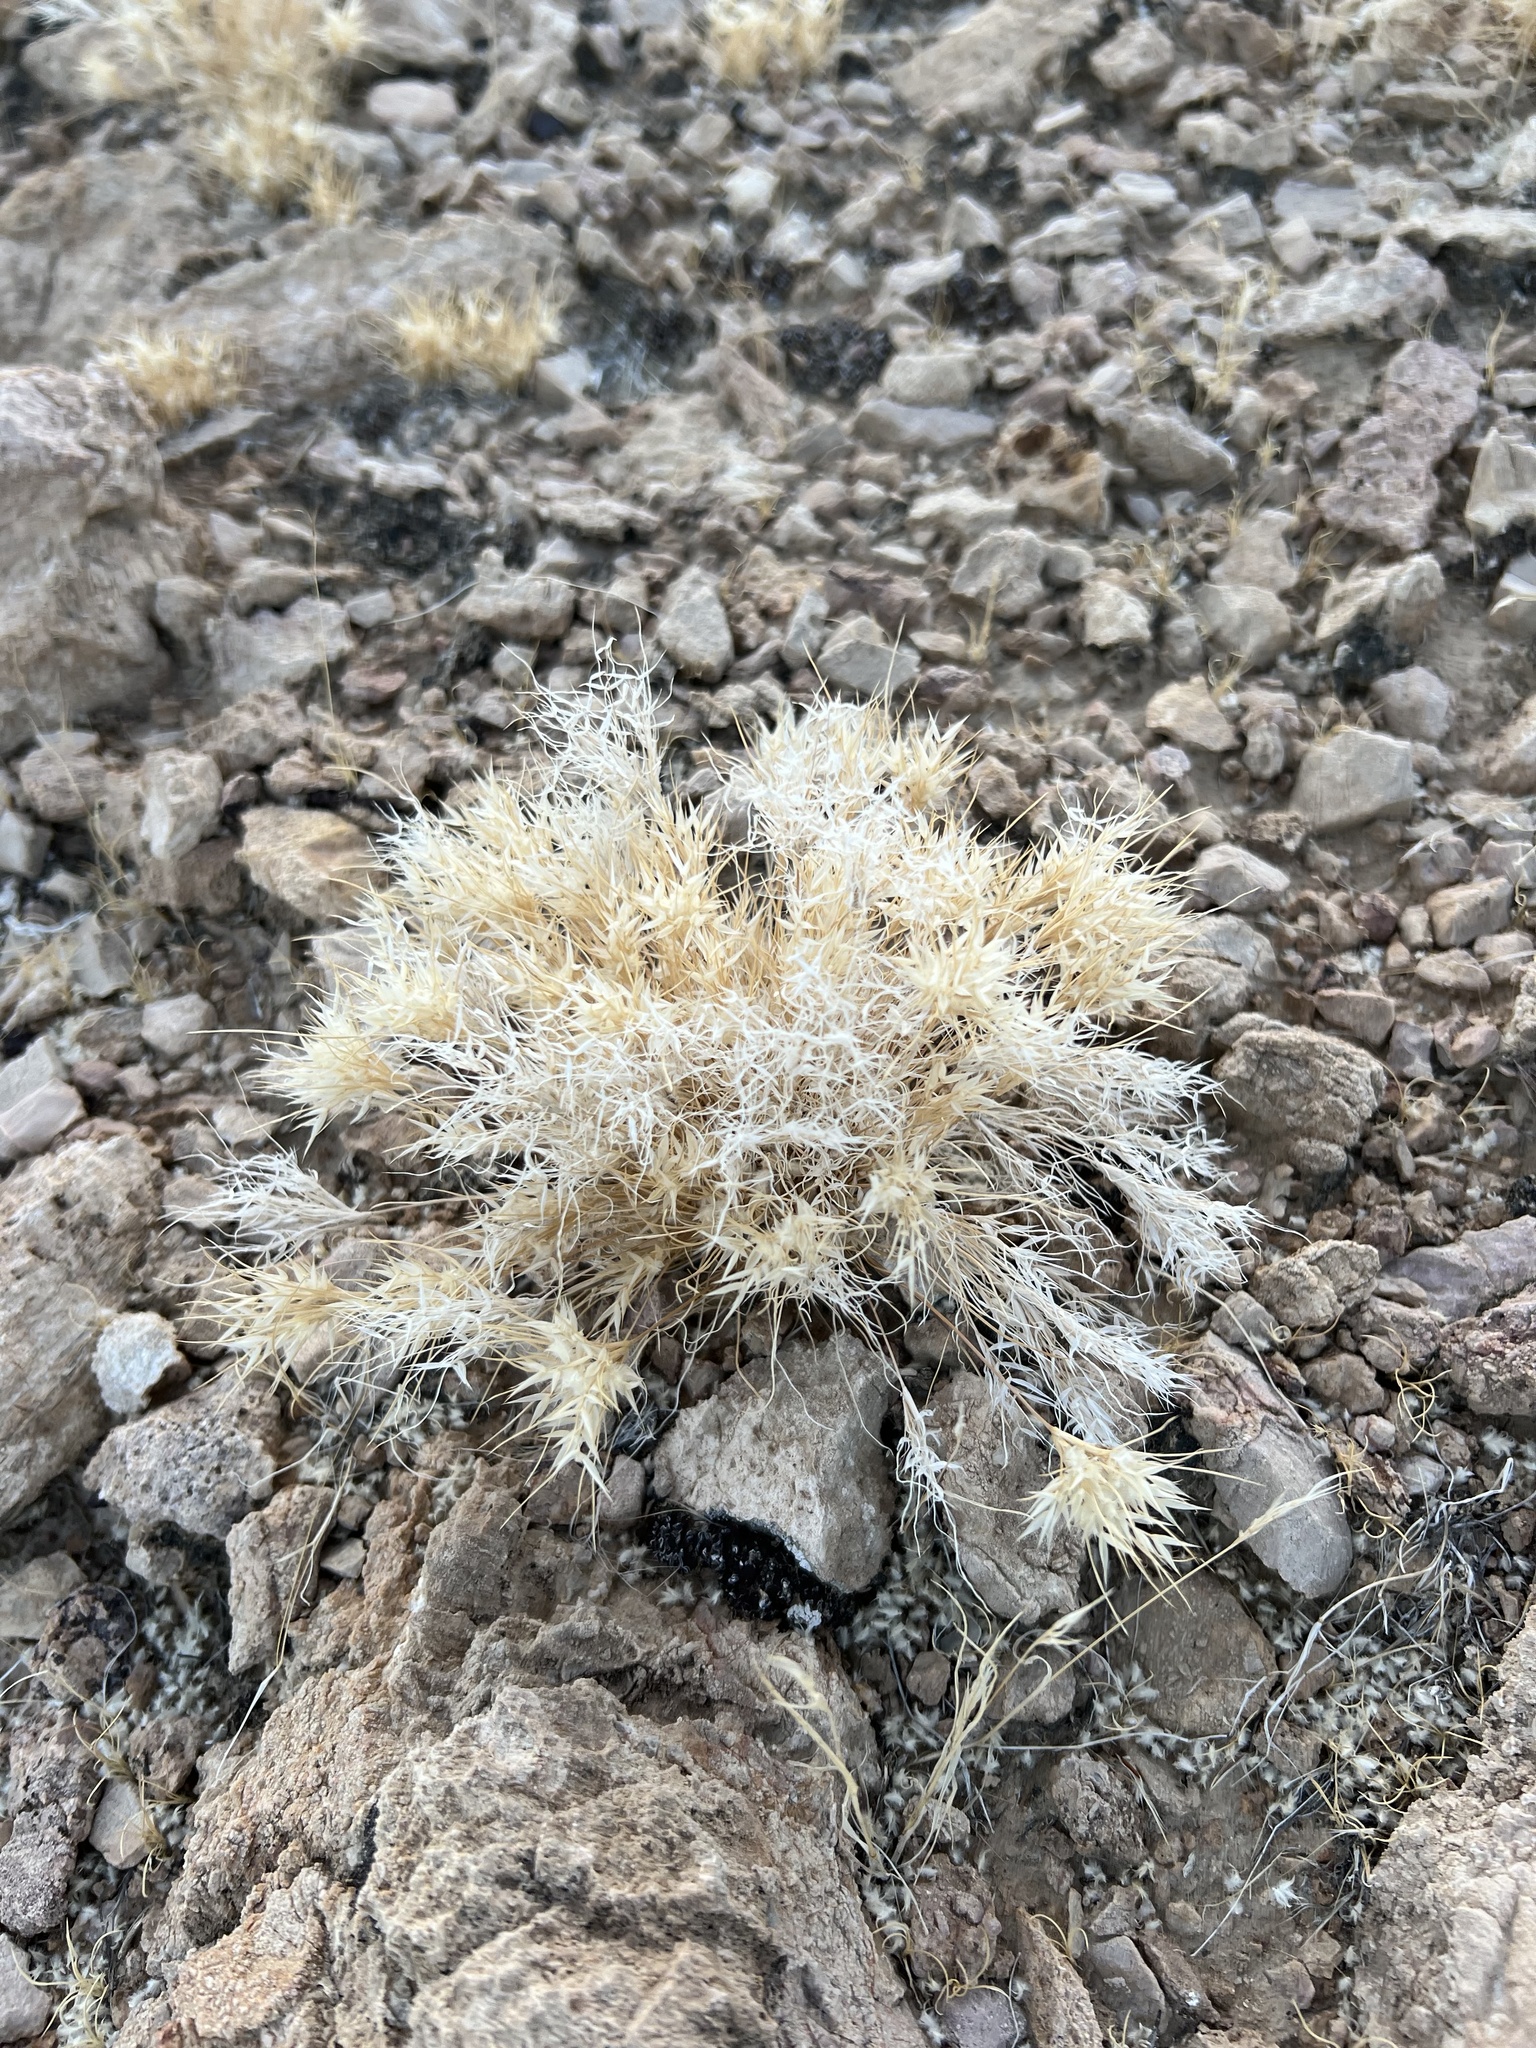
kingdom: Plantae
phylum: Tracheophyta
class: Liliopsida
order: Poales
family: Poaceae
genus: Dasyochloa
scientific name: Dasyochloa pulchella
